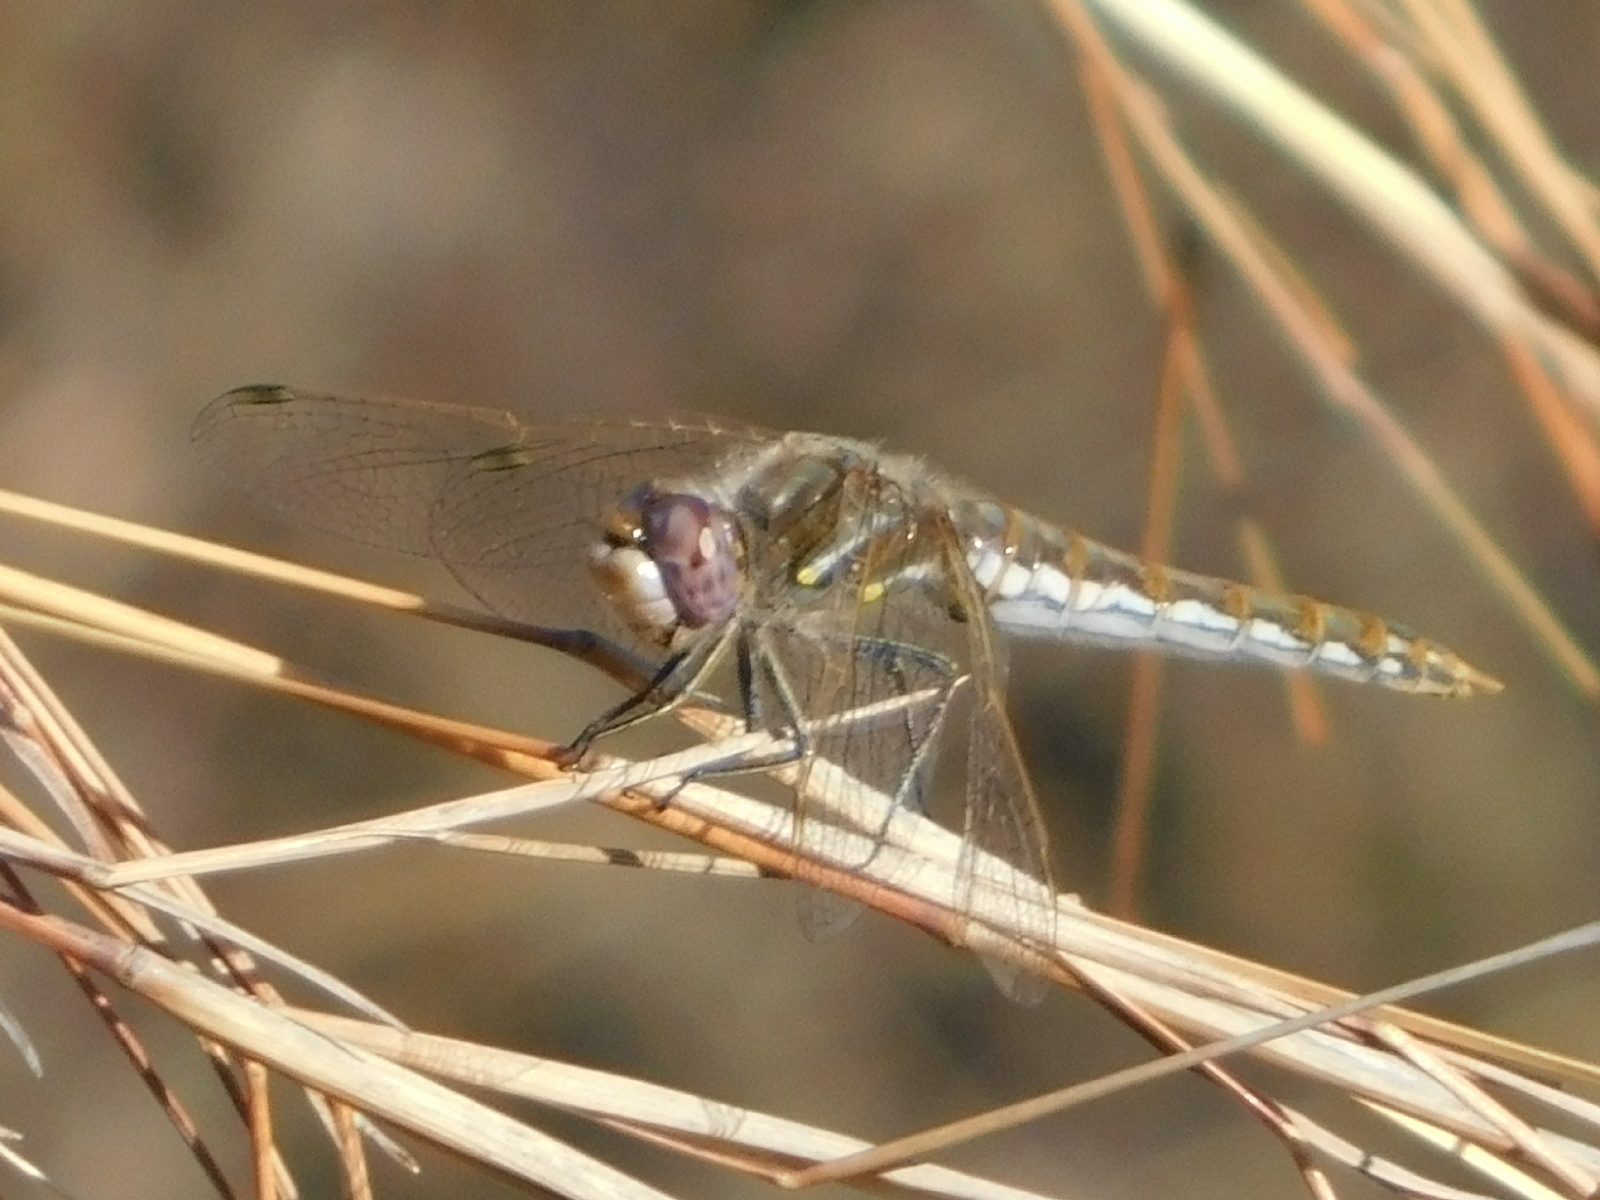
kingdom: Animalia
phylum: Arthropoda
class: Insecta
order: Odonata
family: Libellulidae
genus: Sympetrum
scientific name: Sympetrum corruptum
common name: Variegated meadowhawk
